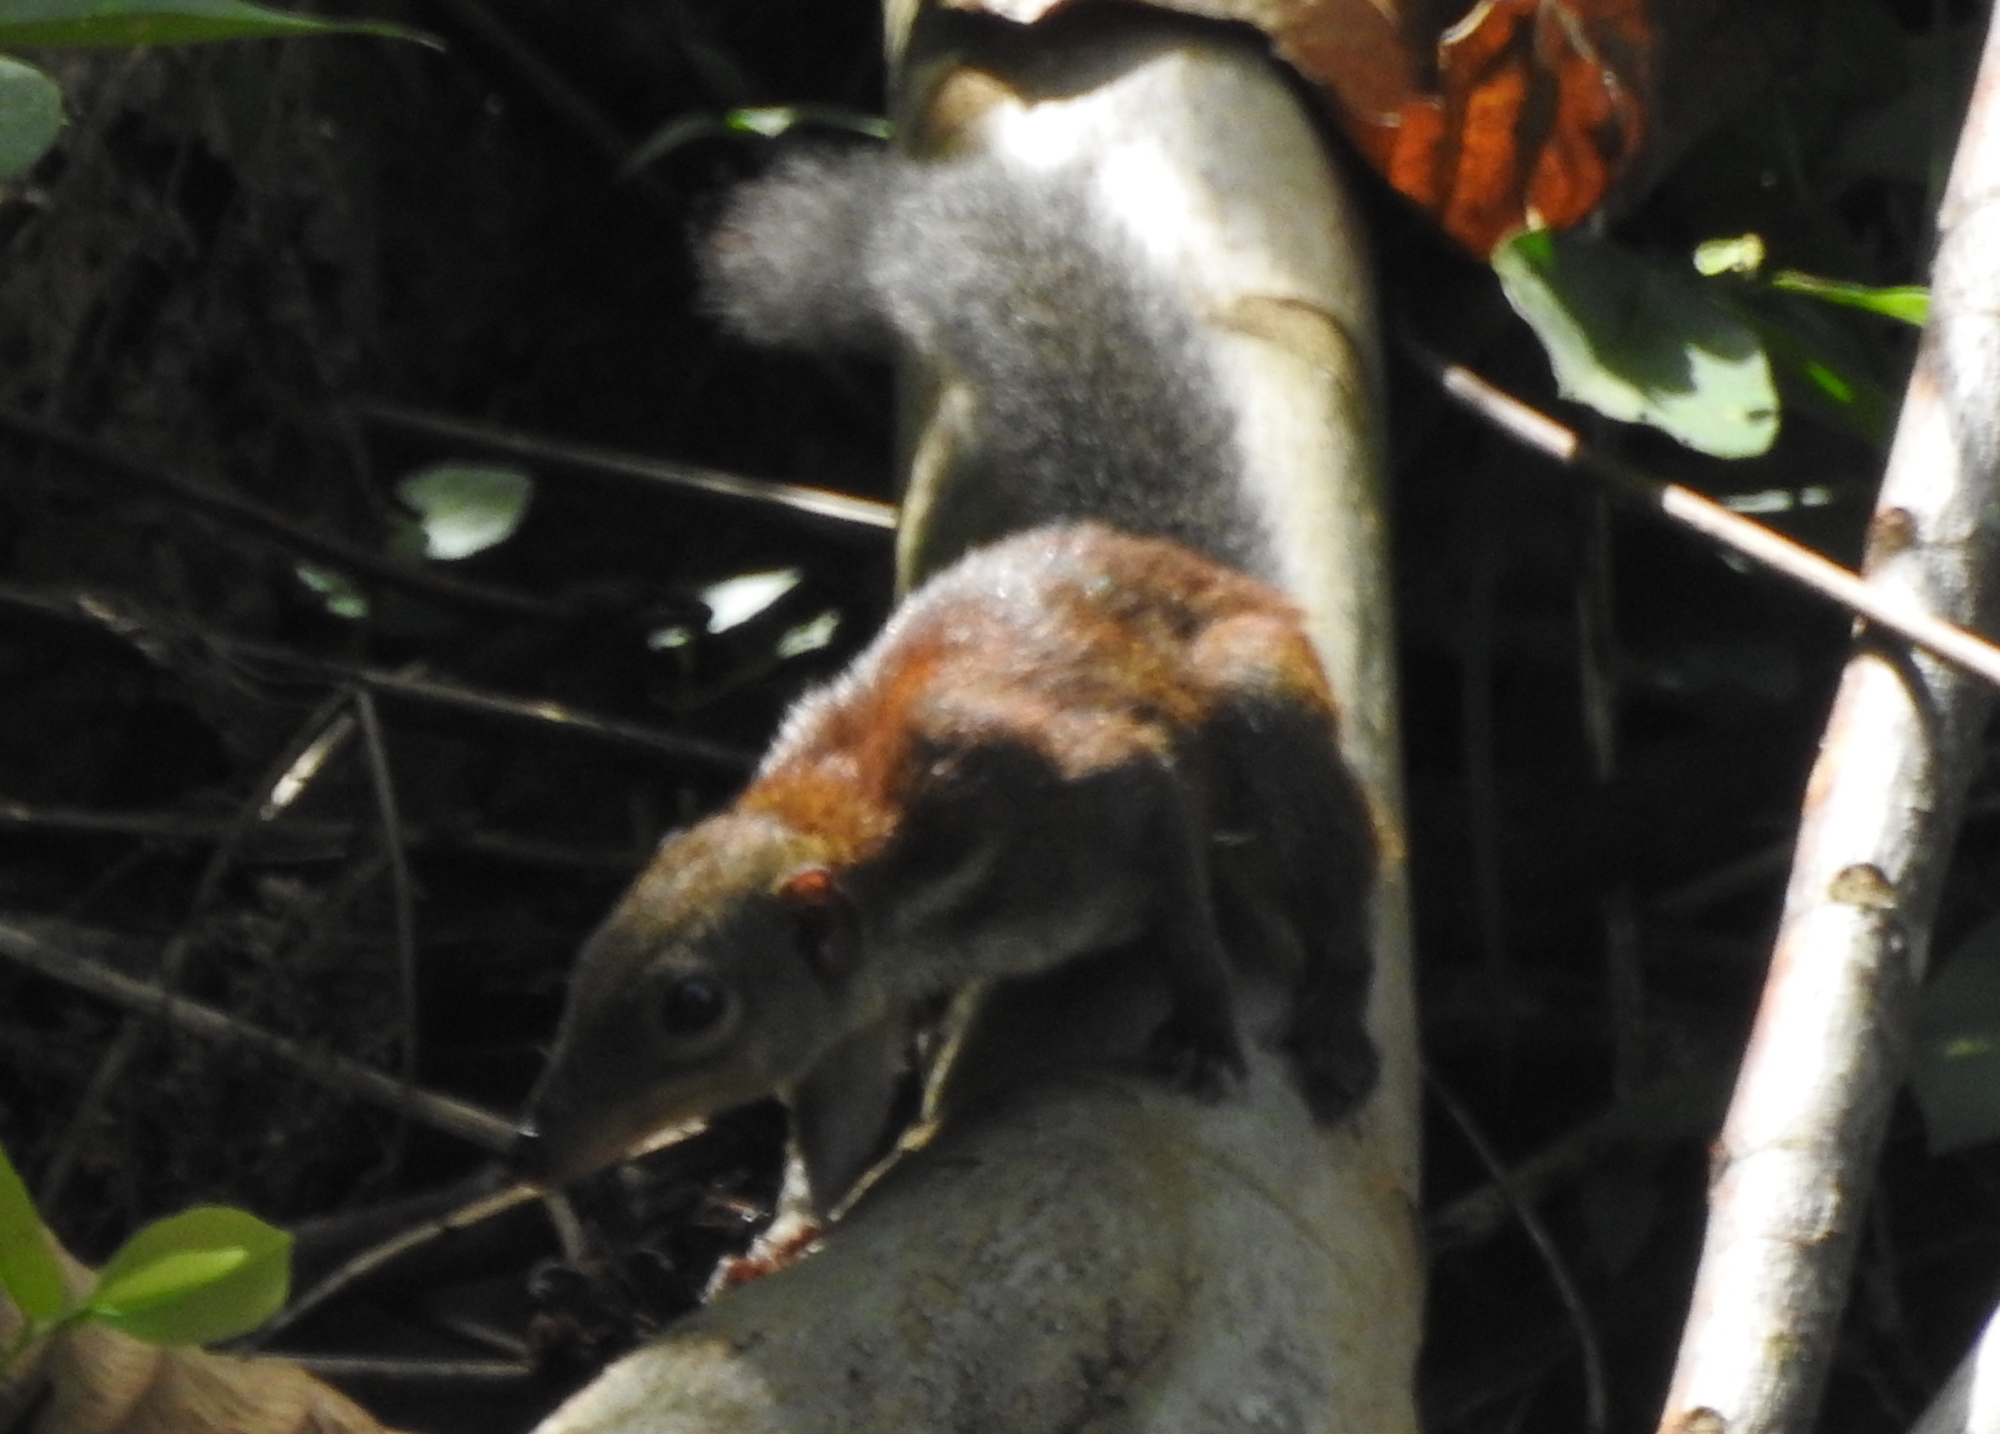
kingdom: Animalia
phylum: Chordata
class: Mammalia
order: Scandentia
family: Tupaiidae
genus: Tupaia
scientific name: Tupaia glis
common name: Common treeshrew
